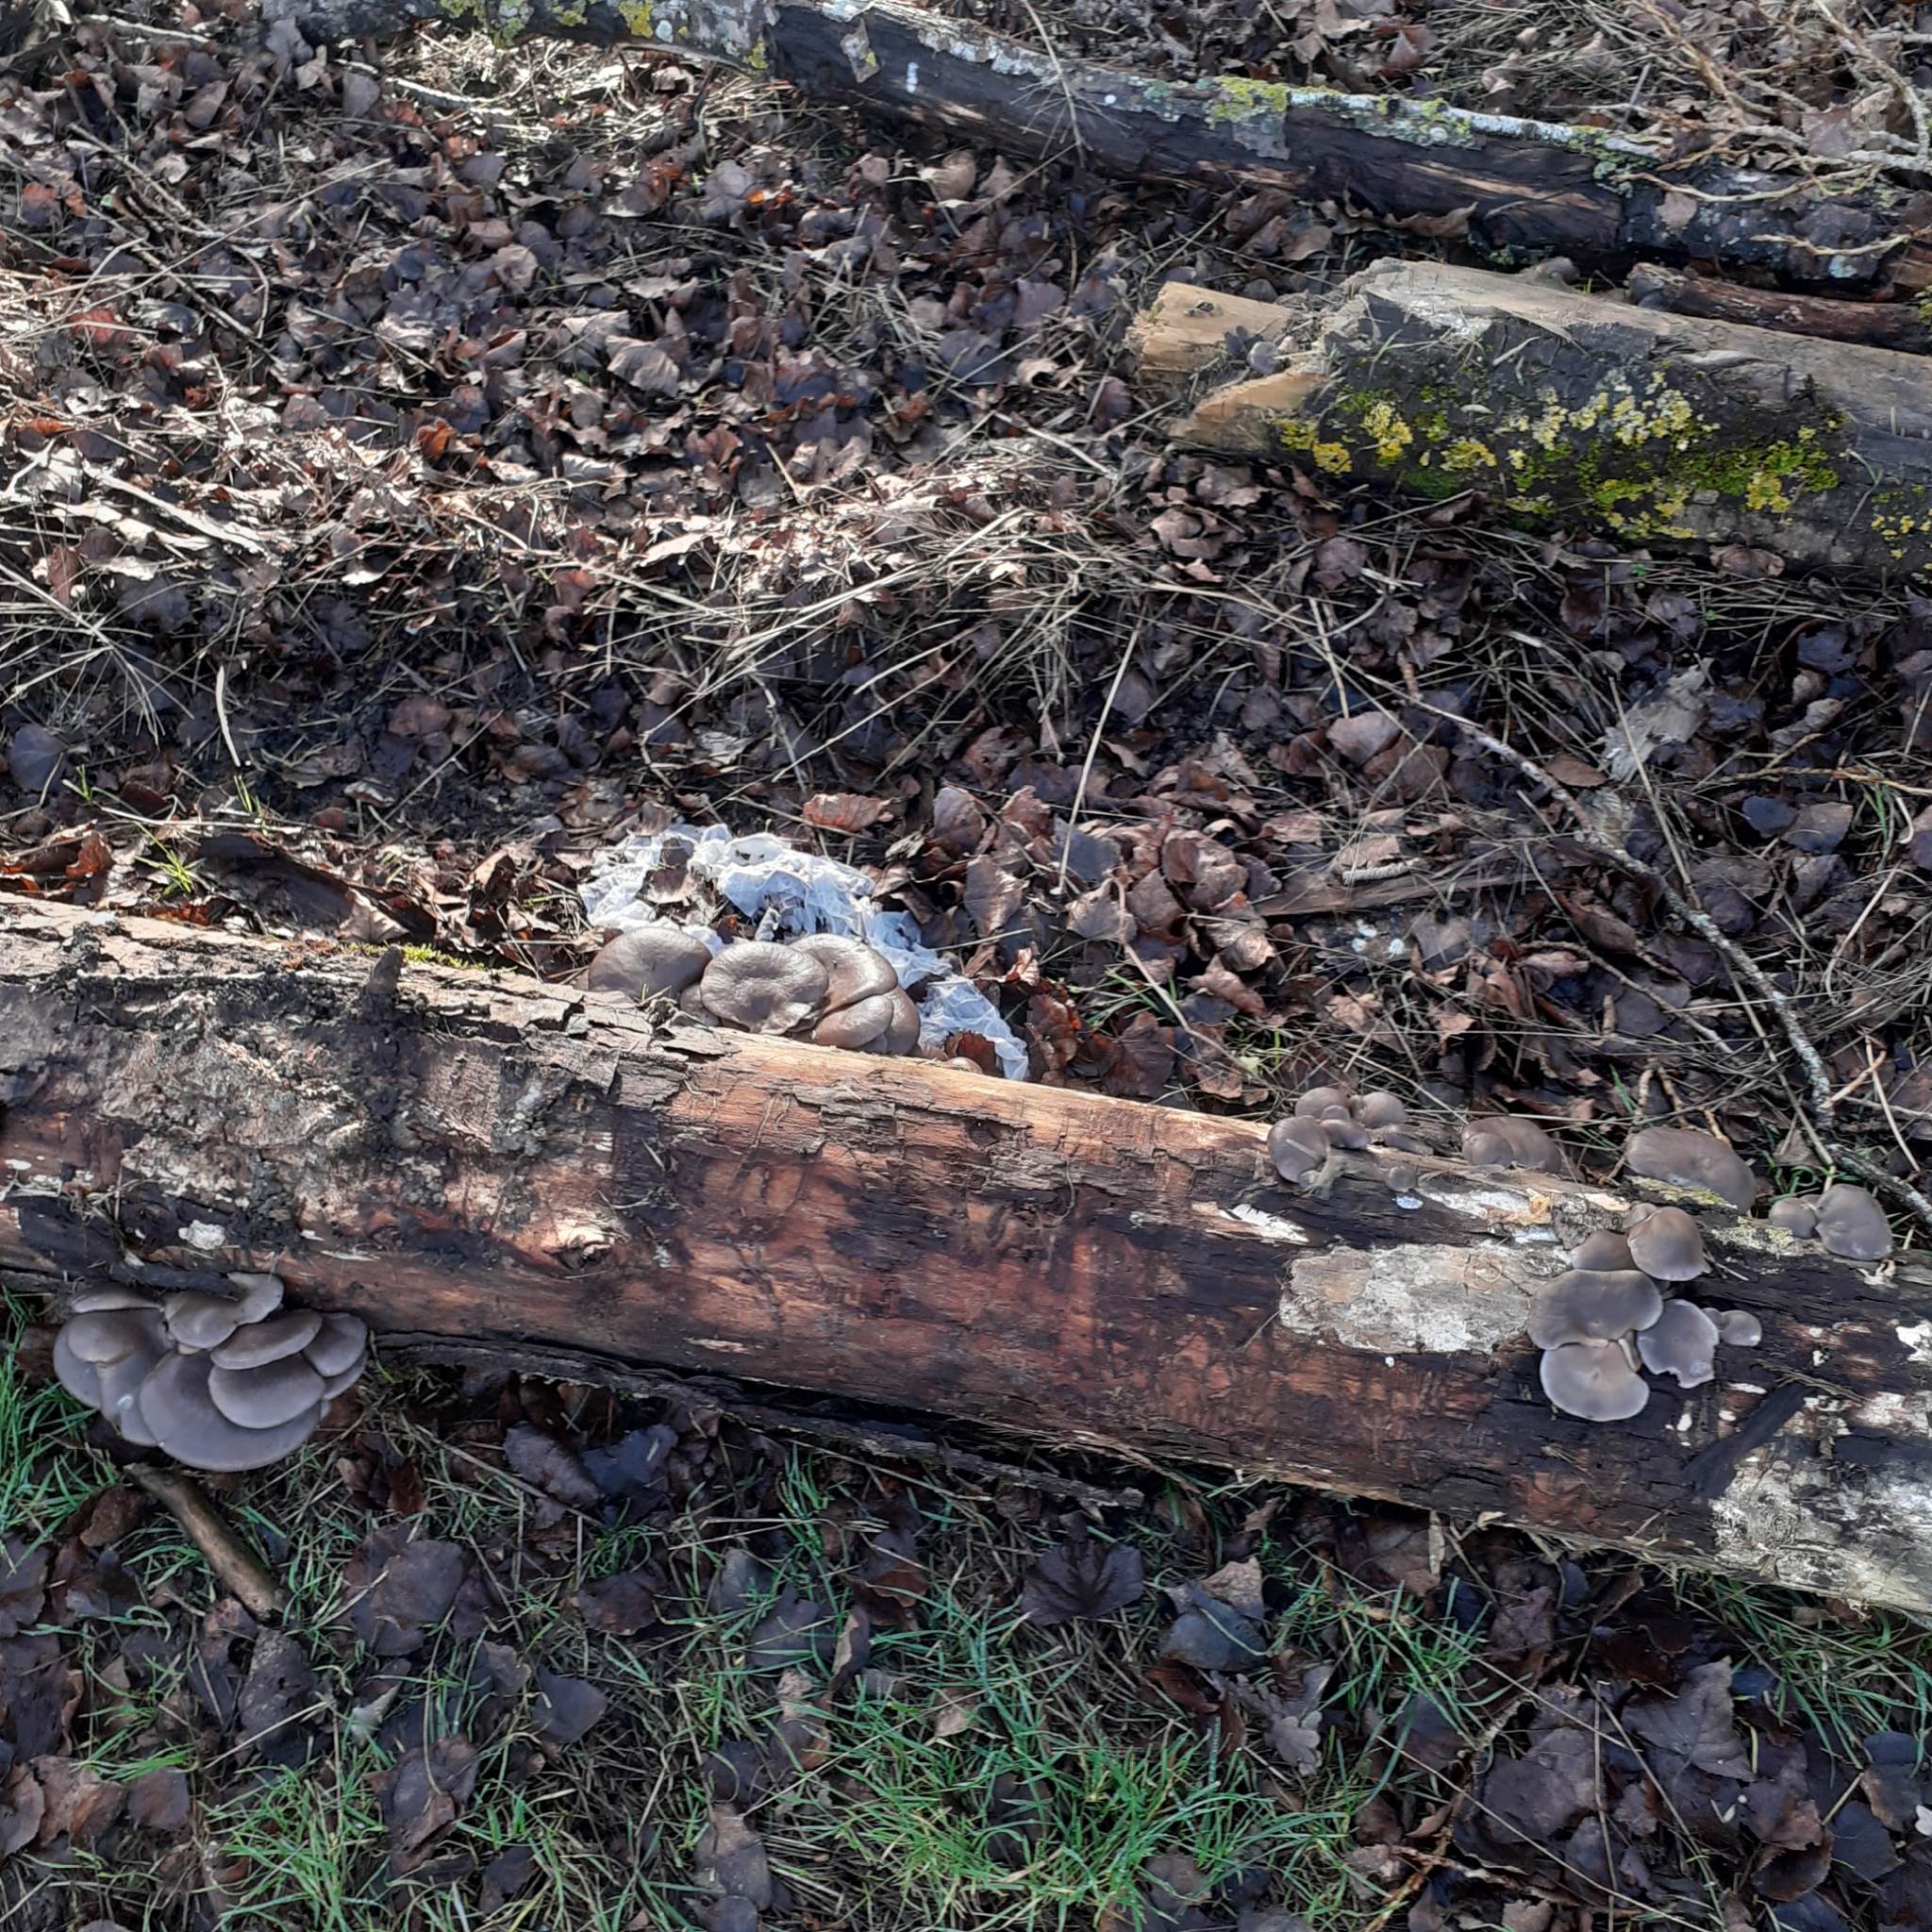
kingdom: Fungi
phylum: Basidiomycota
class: Agaricomycetes
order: Agaricales
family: Pleurotaceae
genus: Pleurotus
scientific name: Pleurotus ostreatus
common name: Oyster mushroom
